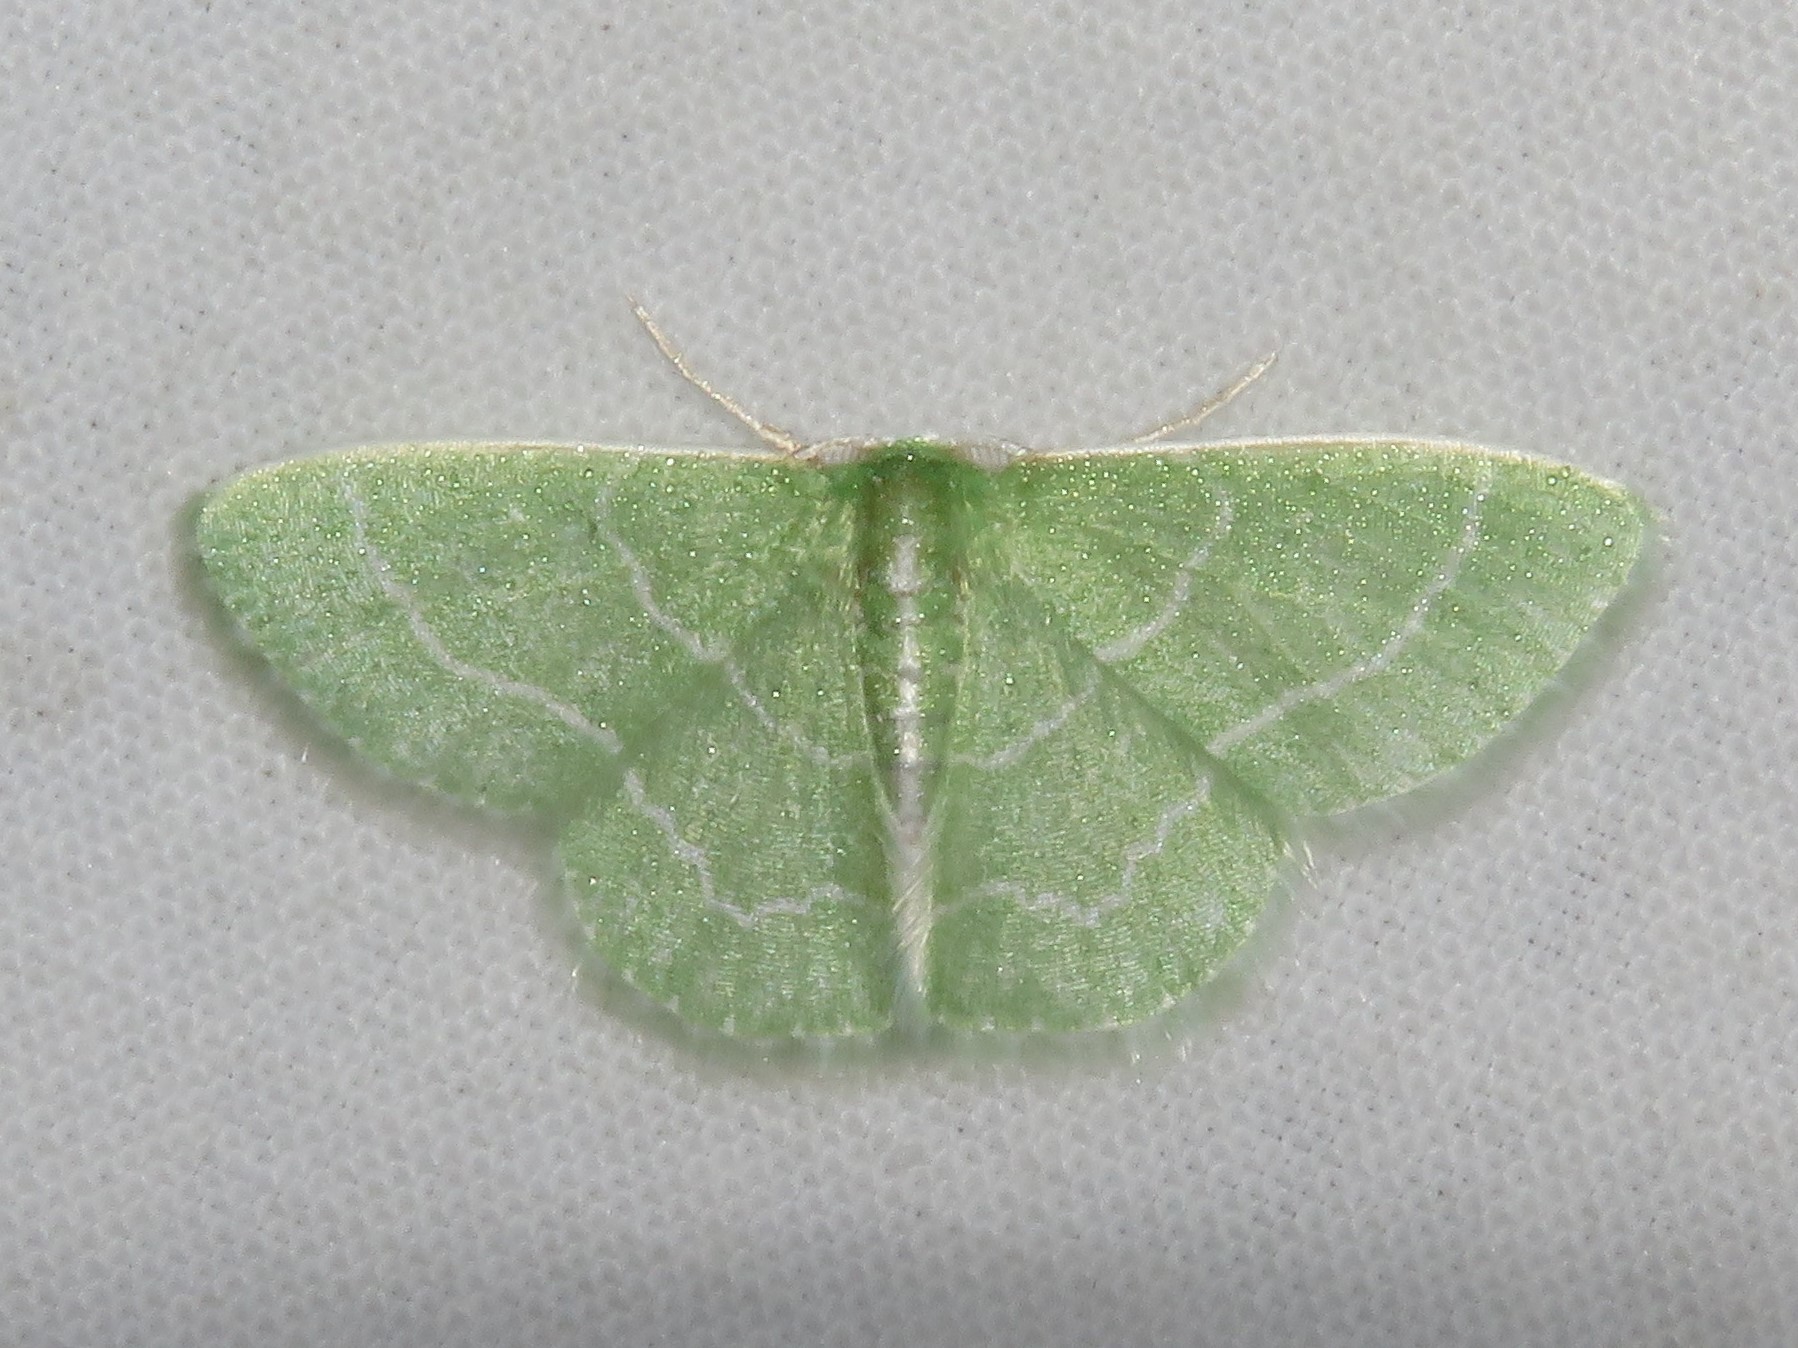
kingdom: Animalia
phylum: Arthropoda
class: Insecta
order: Lepidoptera
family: Geometridae
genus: Synchlora
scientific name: Synchlora aerata
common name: Wavy-lined emerald
